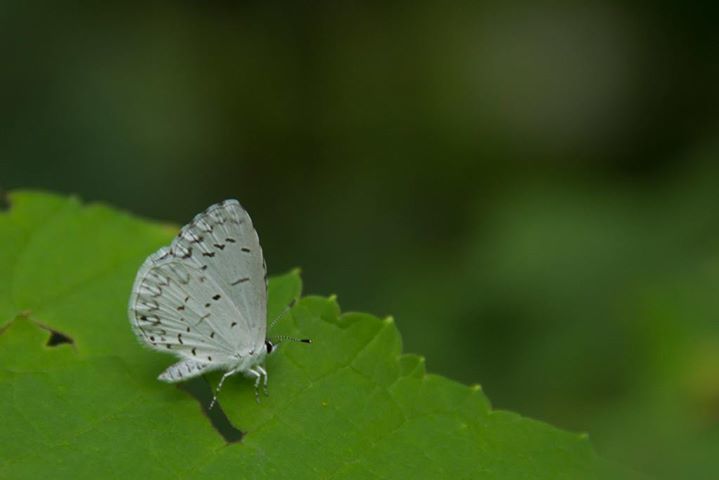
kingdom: Animalia
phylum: Arthropoda
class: Insecta
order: Lepidoptera
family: Lycaenidae
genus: Cyaniris
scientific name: Cyaniris neglecta
